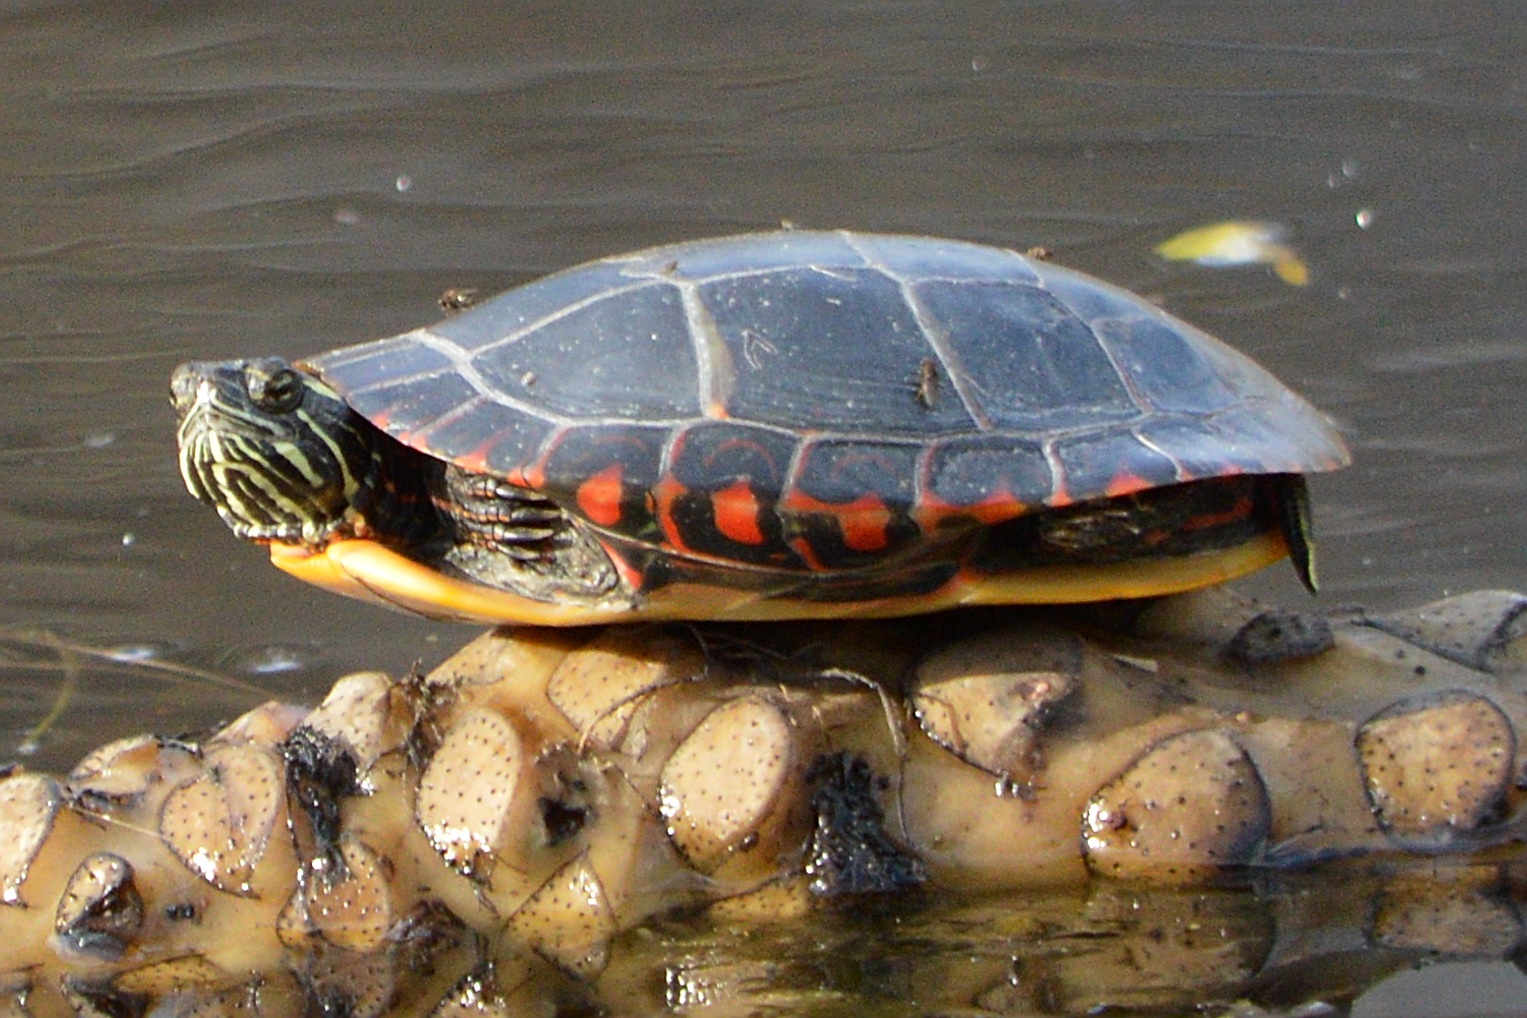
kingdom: Animalia
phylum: Chordata
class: Testudines
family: Emydidae
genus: Chrysemys
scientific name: Chrysemys picta
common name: Painted turtle
